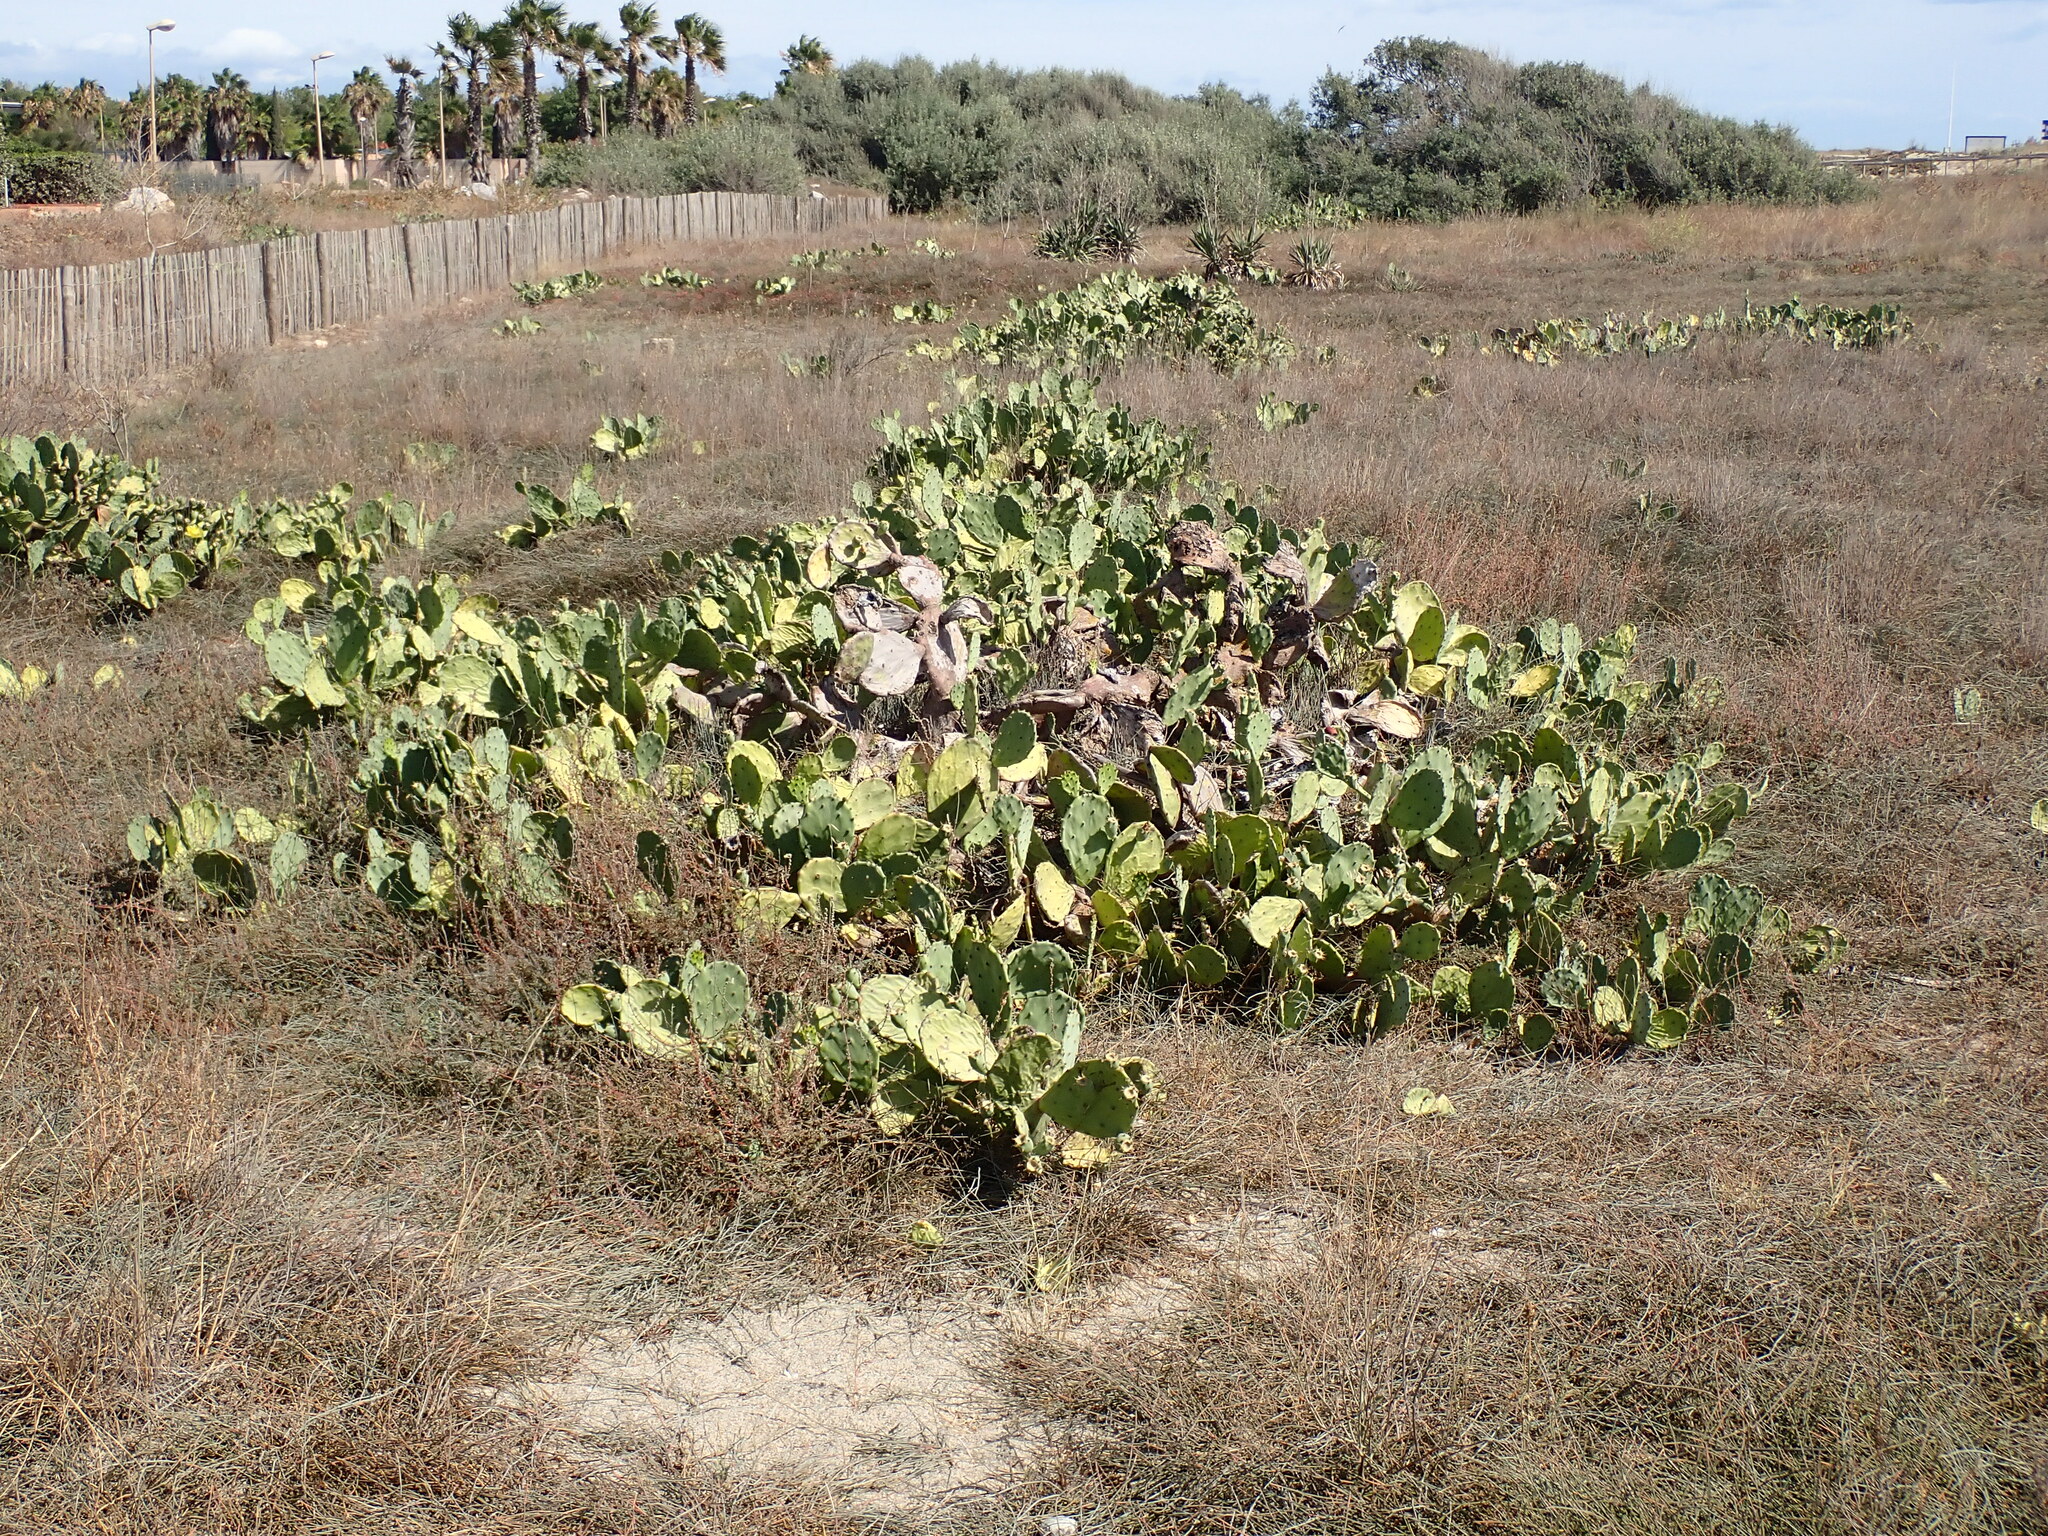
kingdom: Plantae
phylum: Tracheophyta
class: Magnoliopsida
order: Caryophyllales
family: Cactaceae
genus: Opuntia
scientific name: Opuntia anahuacensis
